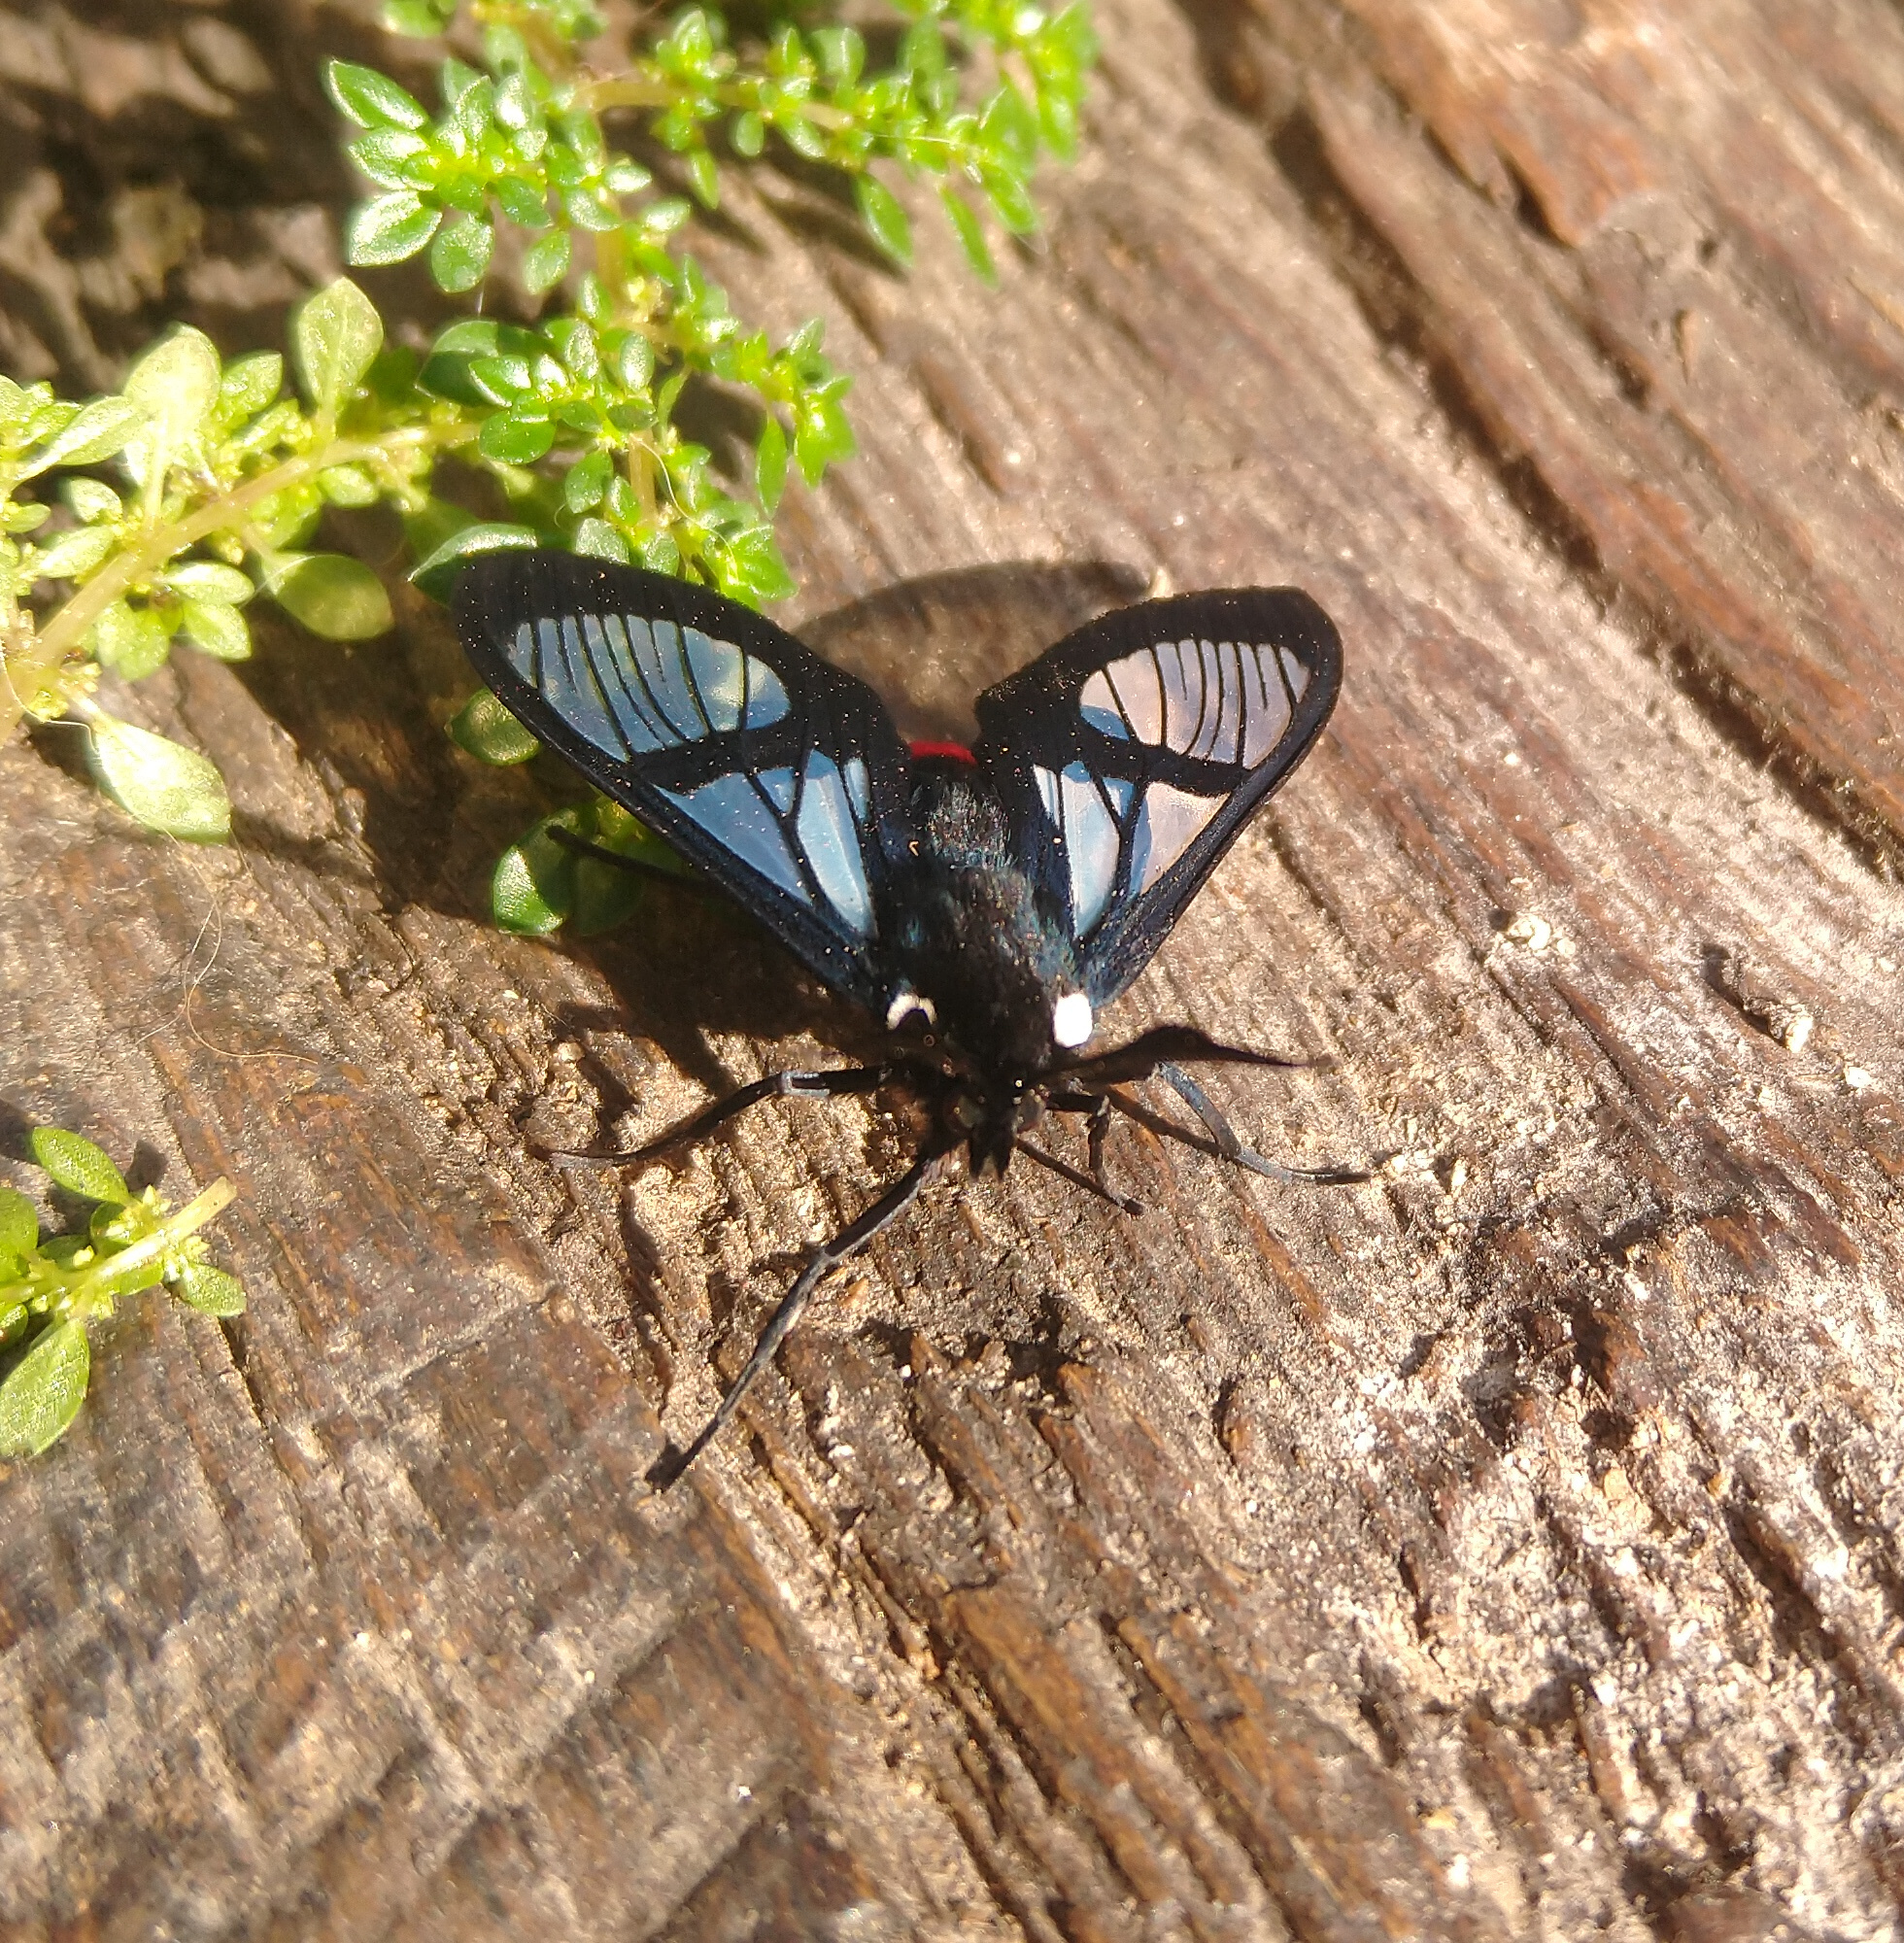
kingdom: Animalia
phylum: Arthropoda
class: Insecta
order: Lepidoptera
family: Erebidae
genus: Aethria
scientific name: Aethria paula
